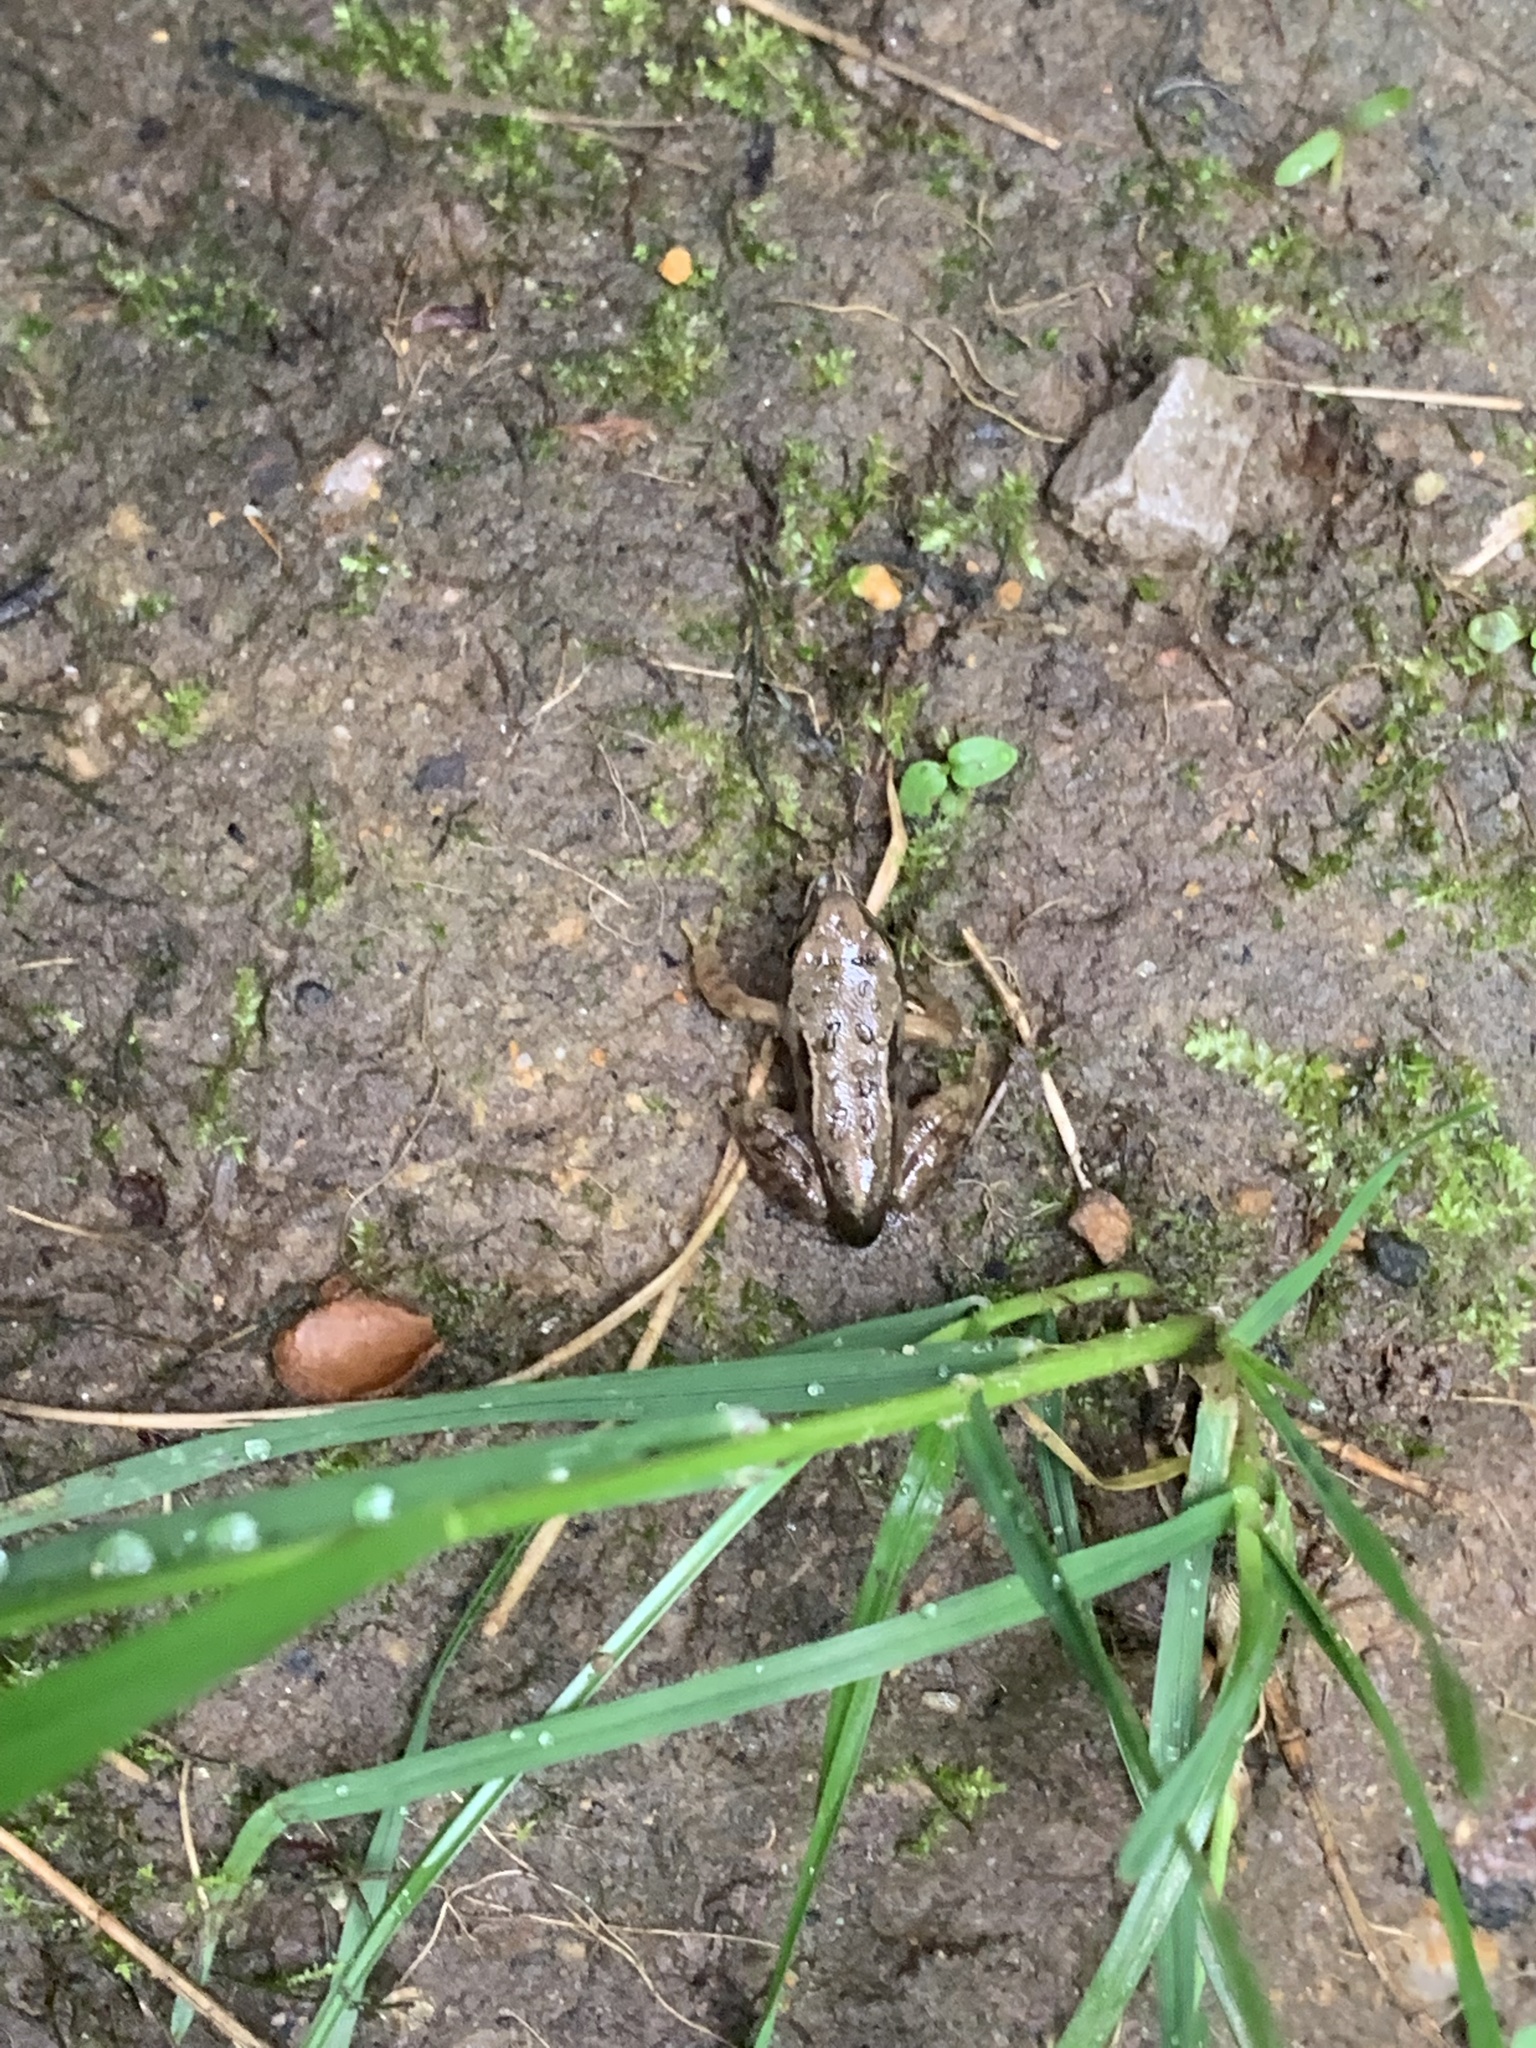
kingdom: Animalia
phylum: Chordata
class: Amphibia
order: Anura
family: Ranidae
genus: Rana
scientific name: Rana temporaria
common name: Common frog
